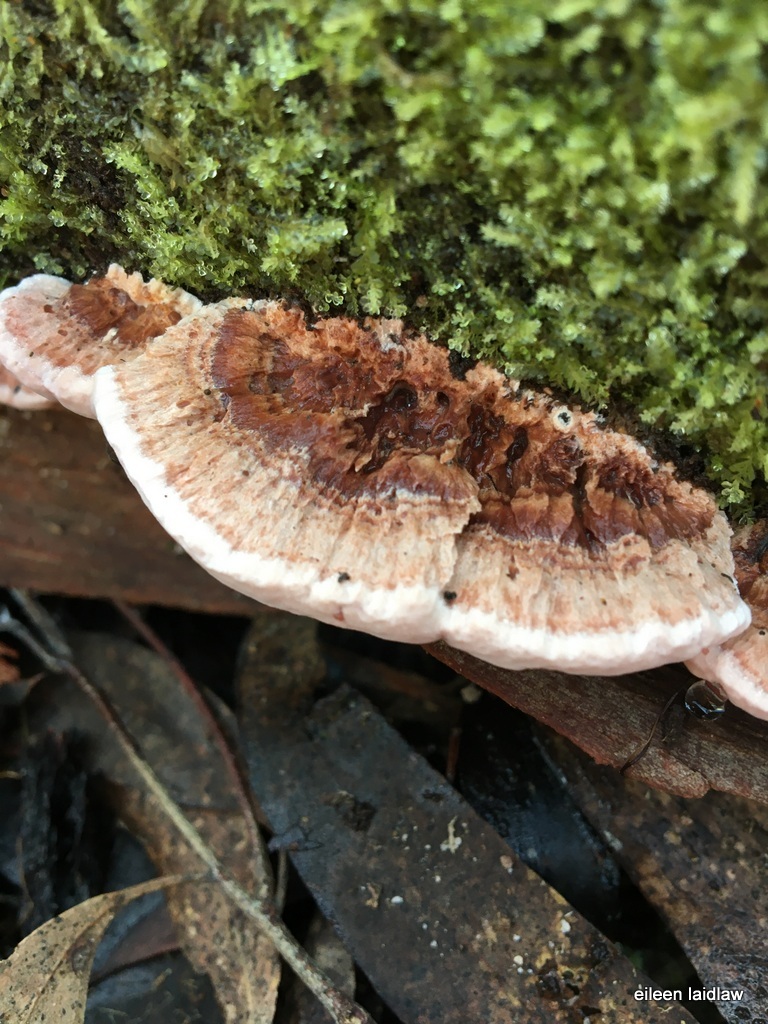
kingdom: Fungi
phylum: Basidiomycota
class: Agaricomycetes
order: Polyporales
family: Fomitopsidaceae
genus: Rhodofomitopsis
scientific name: Rhodofomitopsis lilacinogilva
